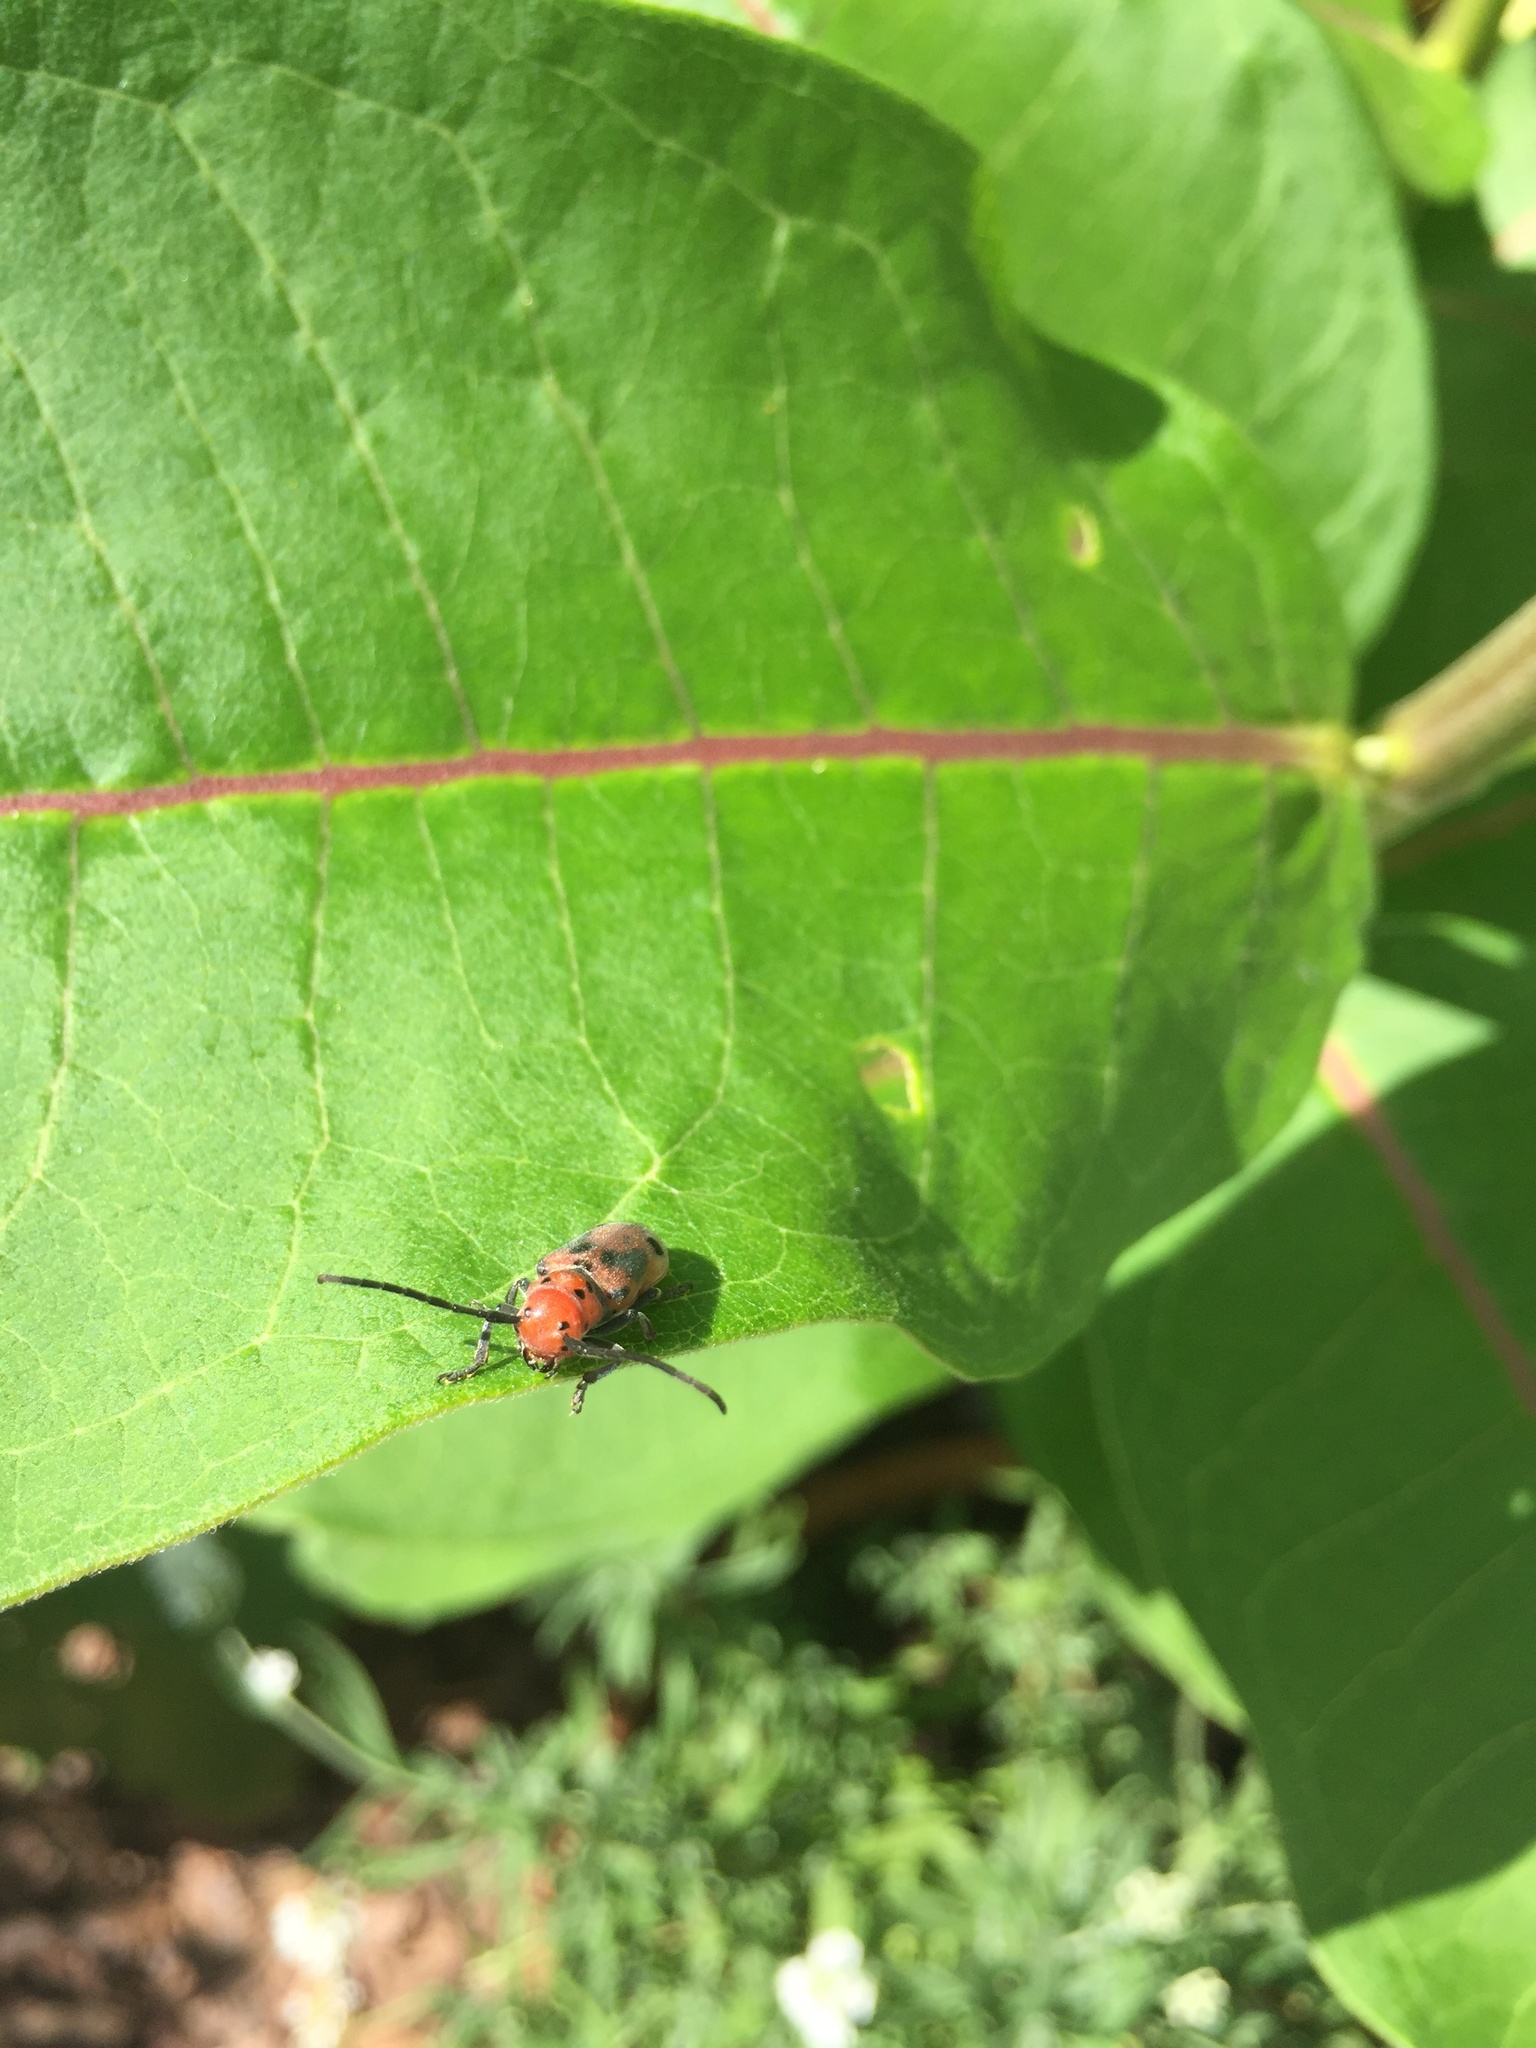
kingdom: Animalia
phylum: Arthropoda
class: Insecta
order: Coleoptera
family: Cerambycidae
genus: Tetraopes
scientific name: Tetraopes tetrophthalmus
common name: Red milkweed beetle
